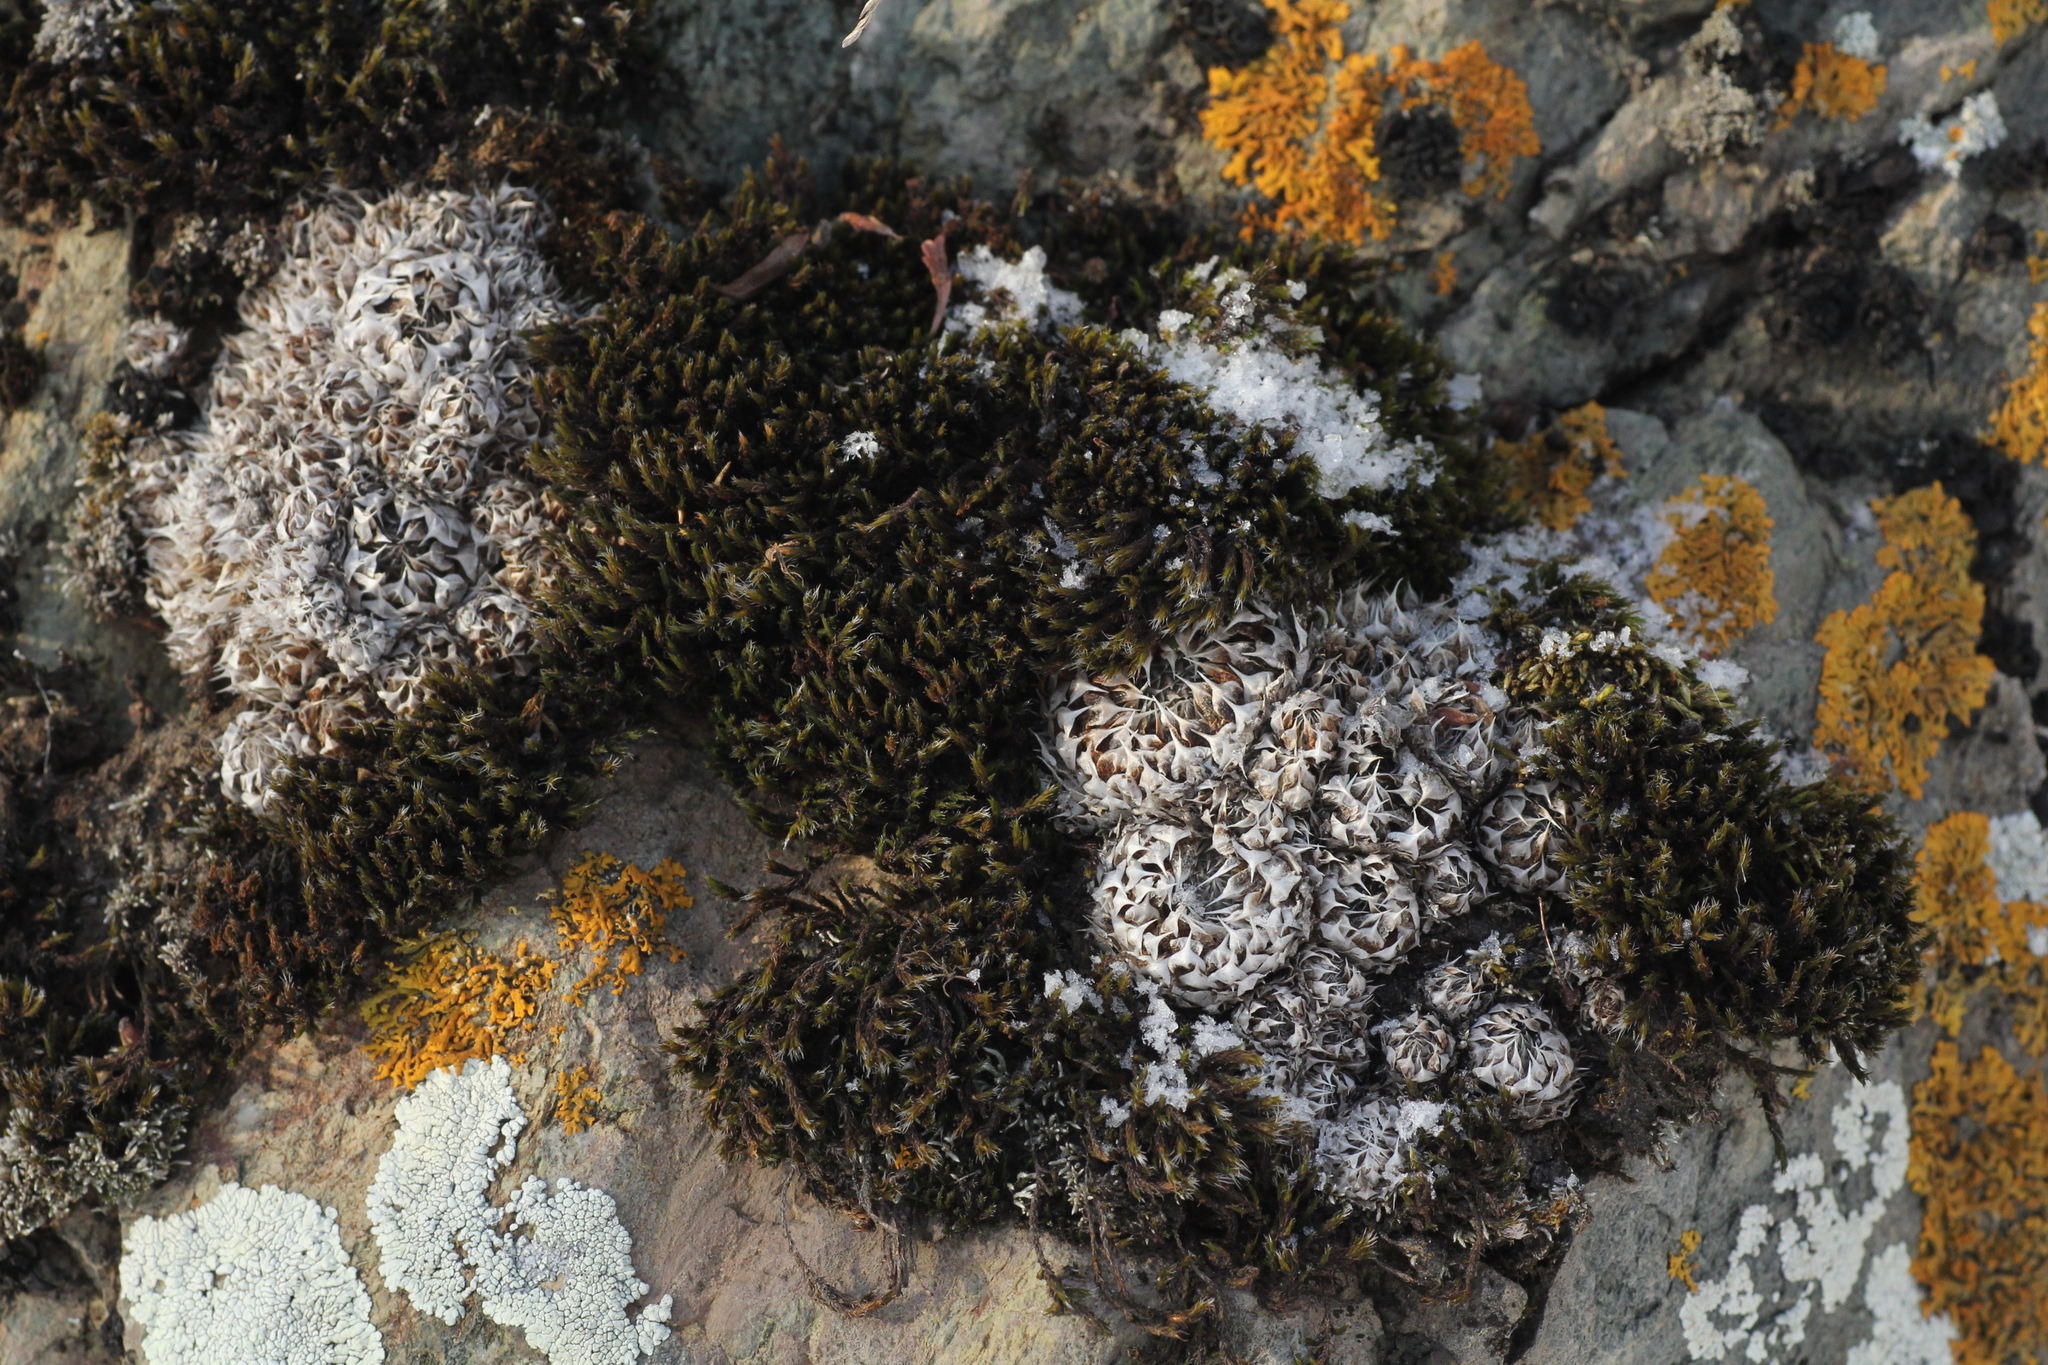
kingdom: Plantae
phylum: Tracheophyta
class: Magnoliopsida
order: Saxifragales
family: Crassulaceae
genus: Orostachys
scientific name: Orostachys spinosa
